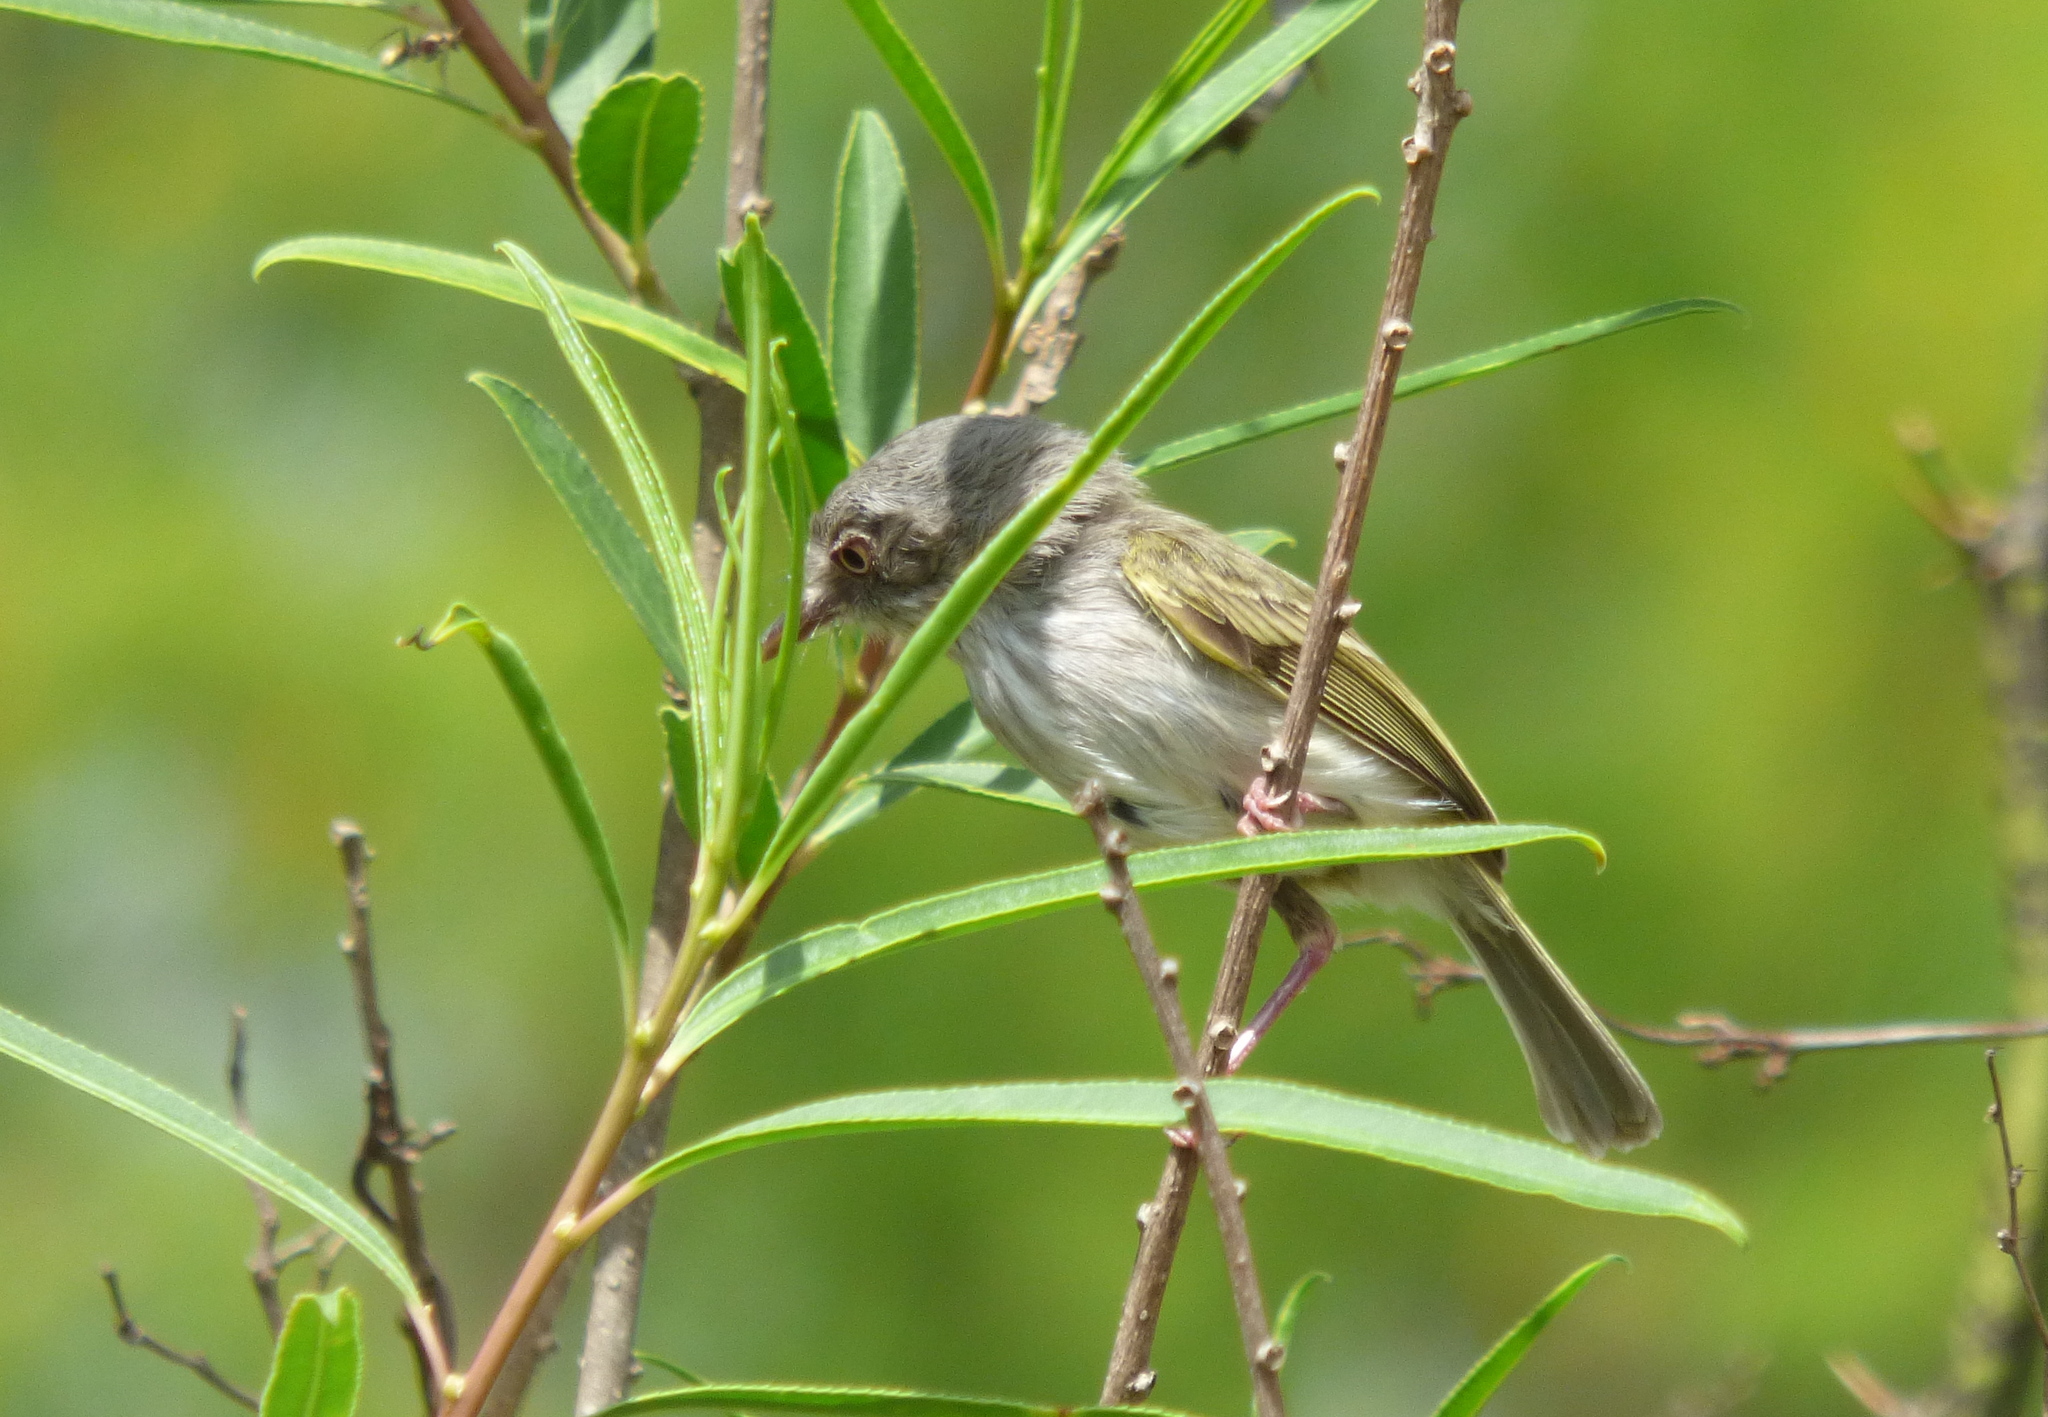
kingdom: Animalia
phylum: Chordata
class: Aves
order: Passeriformes
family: Tyrannidae
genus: Hemitriccus
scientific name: Hemitriccus margaritaceiventer
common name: Pearly-vented tody-tyrant
